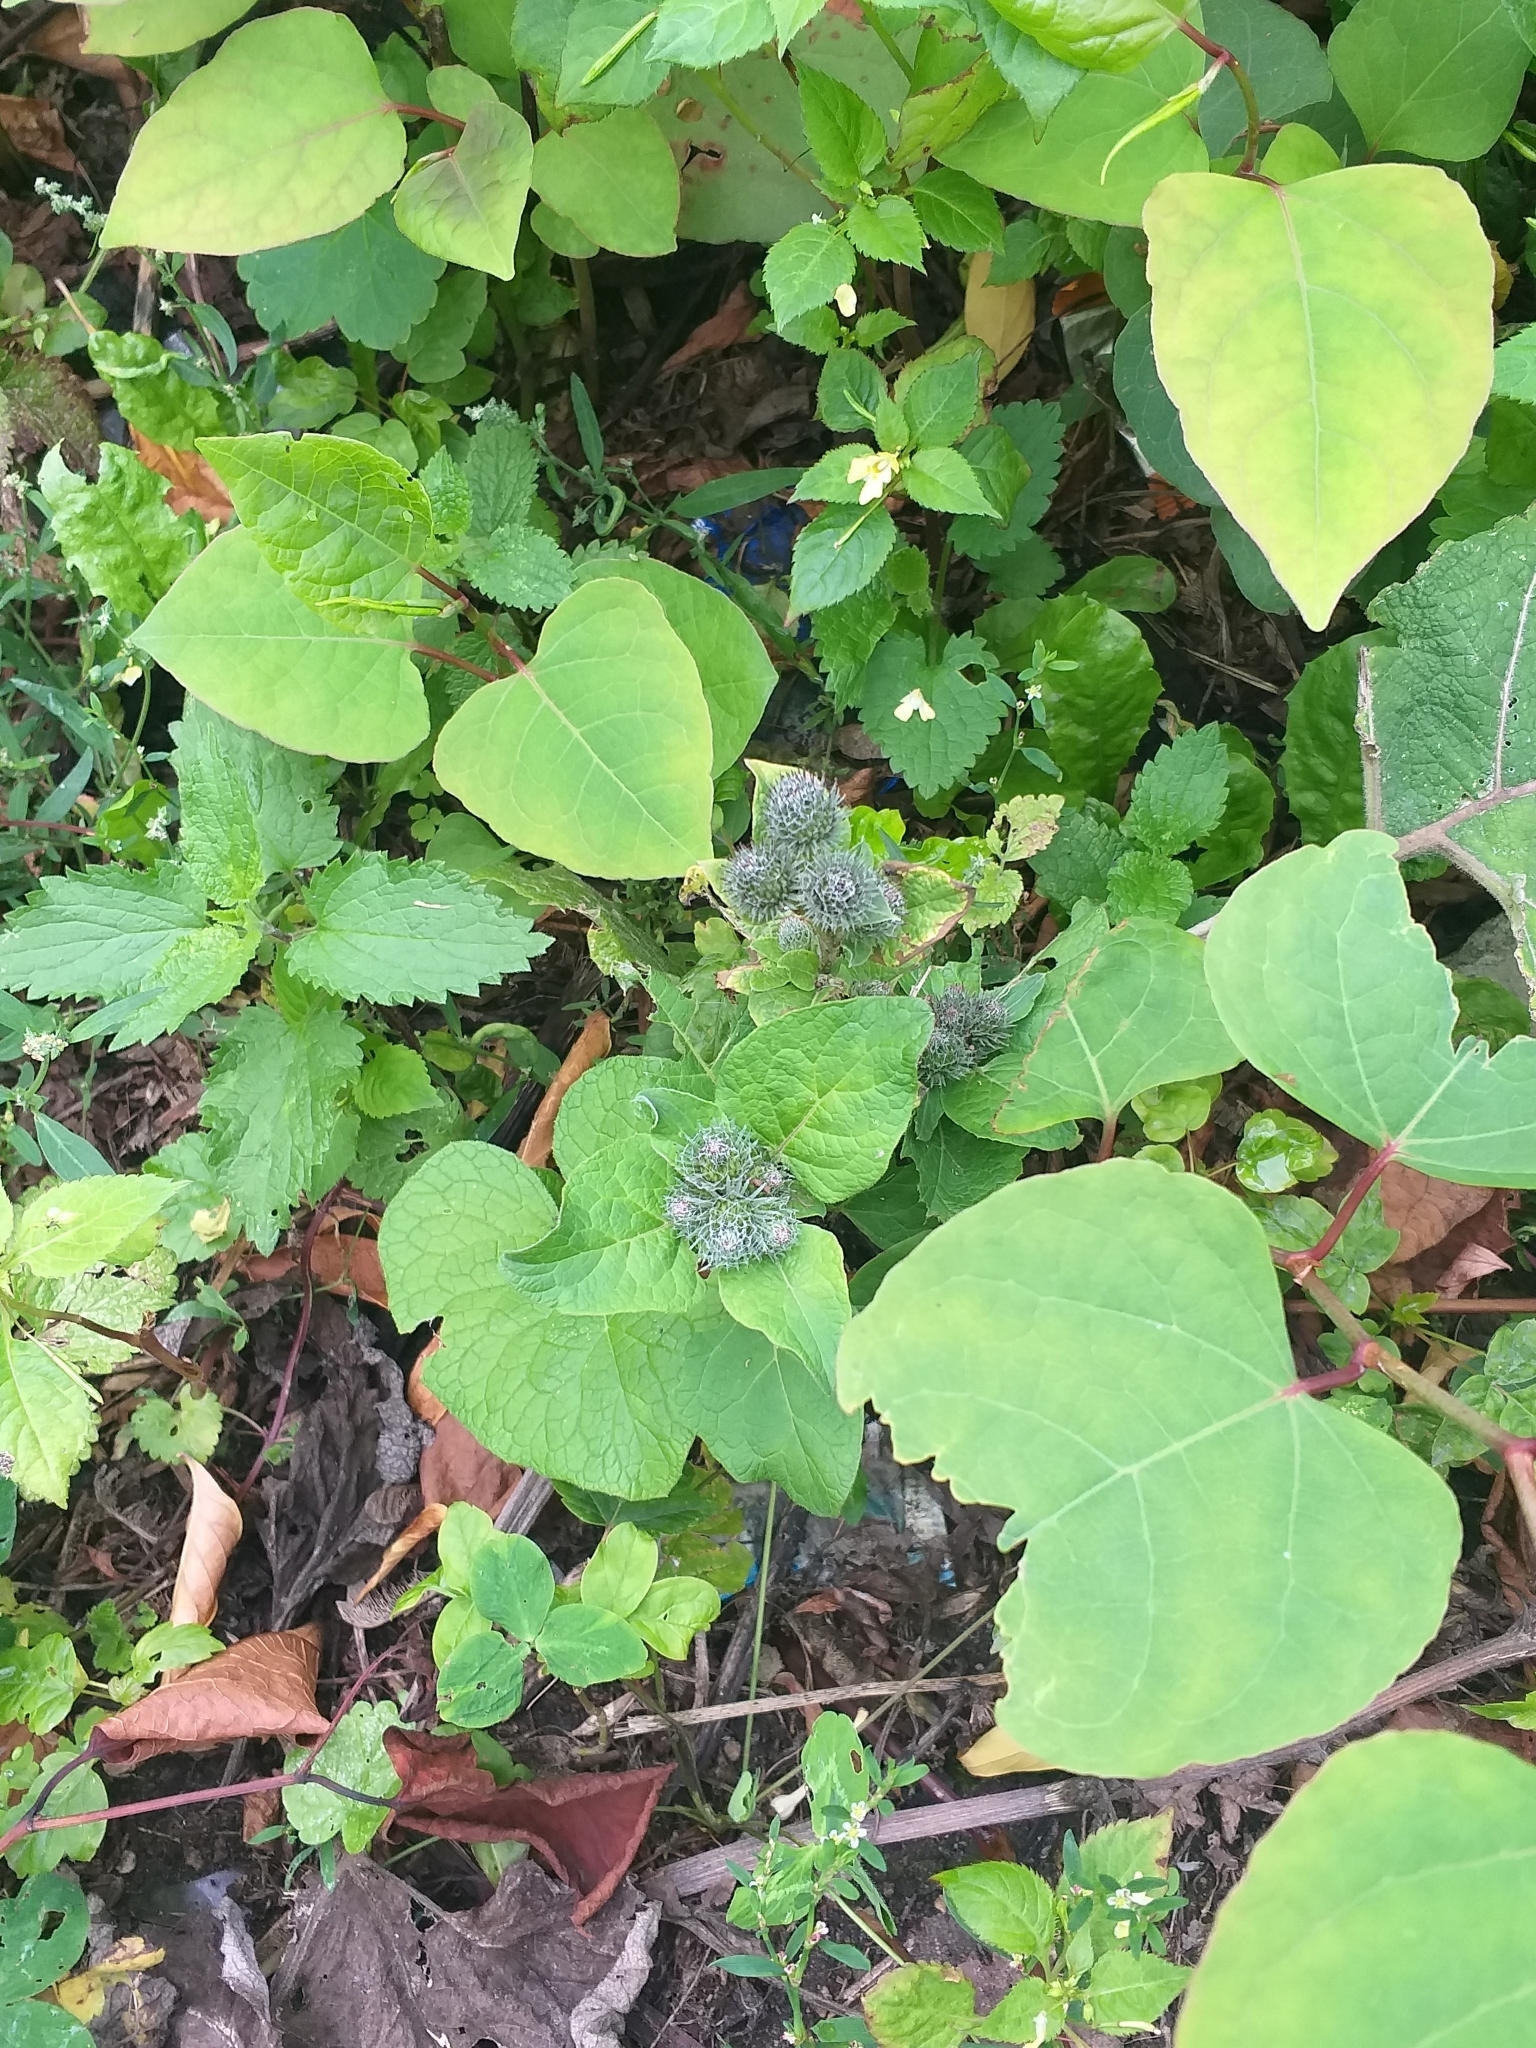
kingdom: Plantae
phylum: Tracheophyta
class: Magnoliopsida
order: Asterales
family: Asteraceae
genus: Arctium
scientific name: Arctium tomentosum
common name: Woolly burdock
